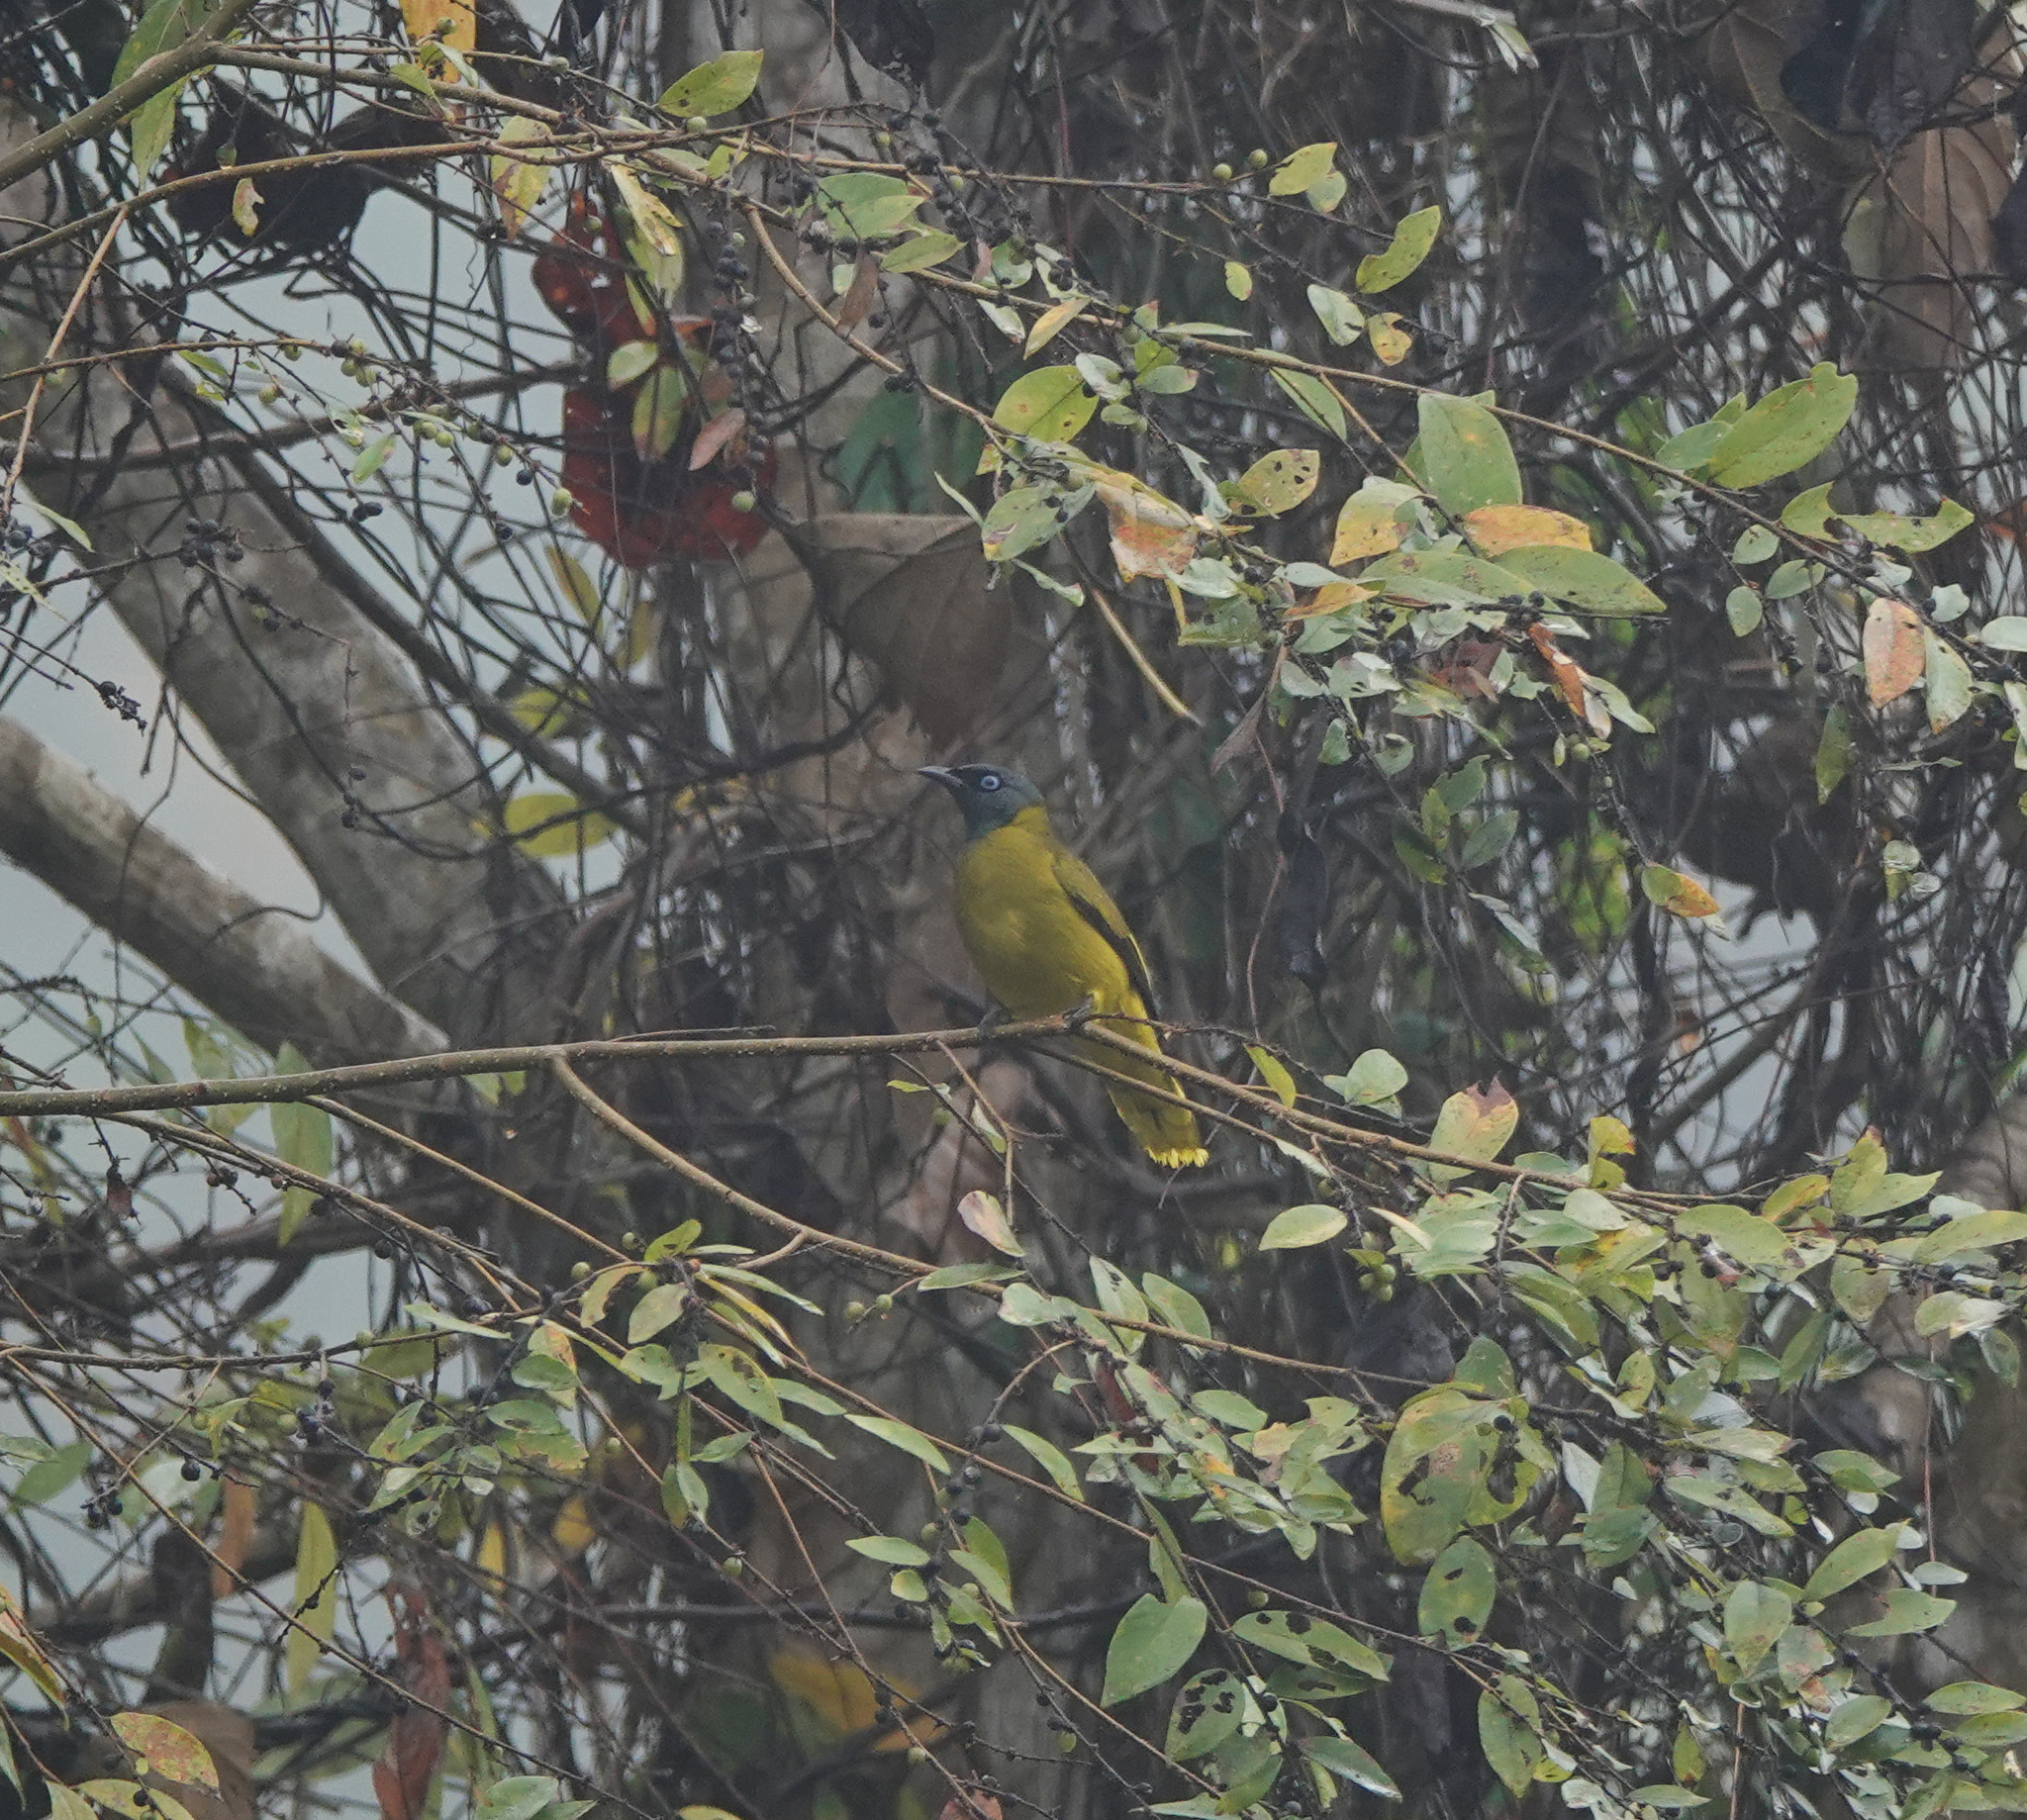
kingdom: Animalia
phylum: Chordata
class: Aves
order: Passeriformes
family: Pycnonotidae
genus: Microtarsus
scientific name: Microtarsus
